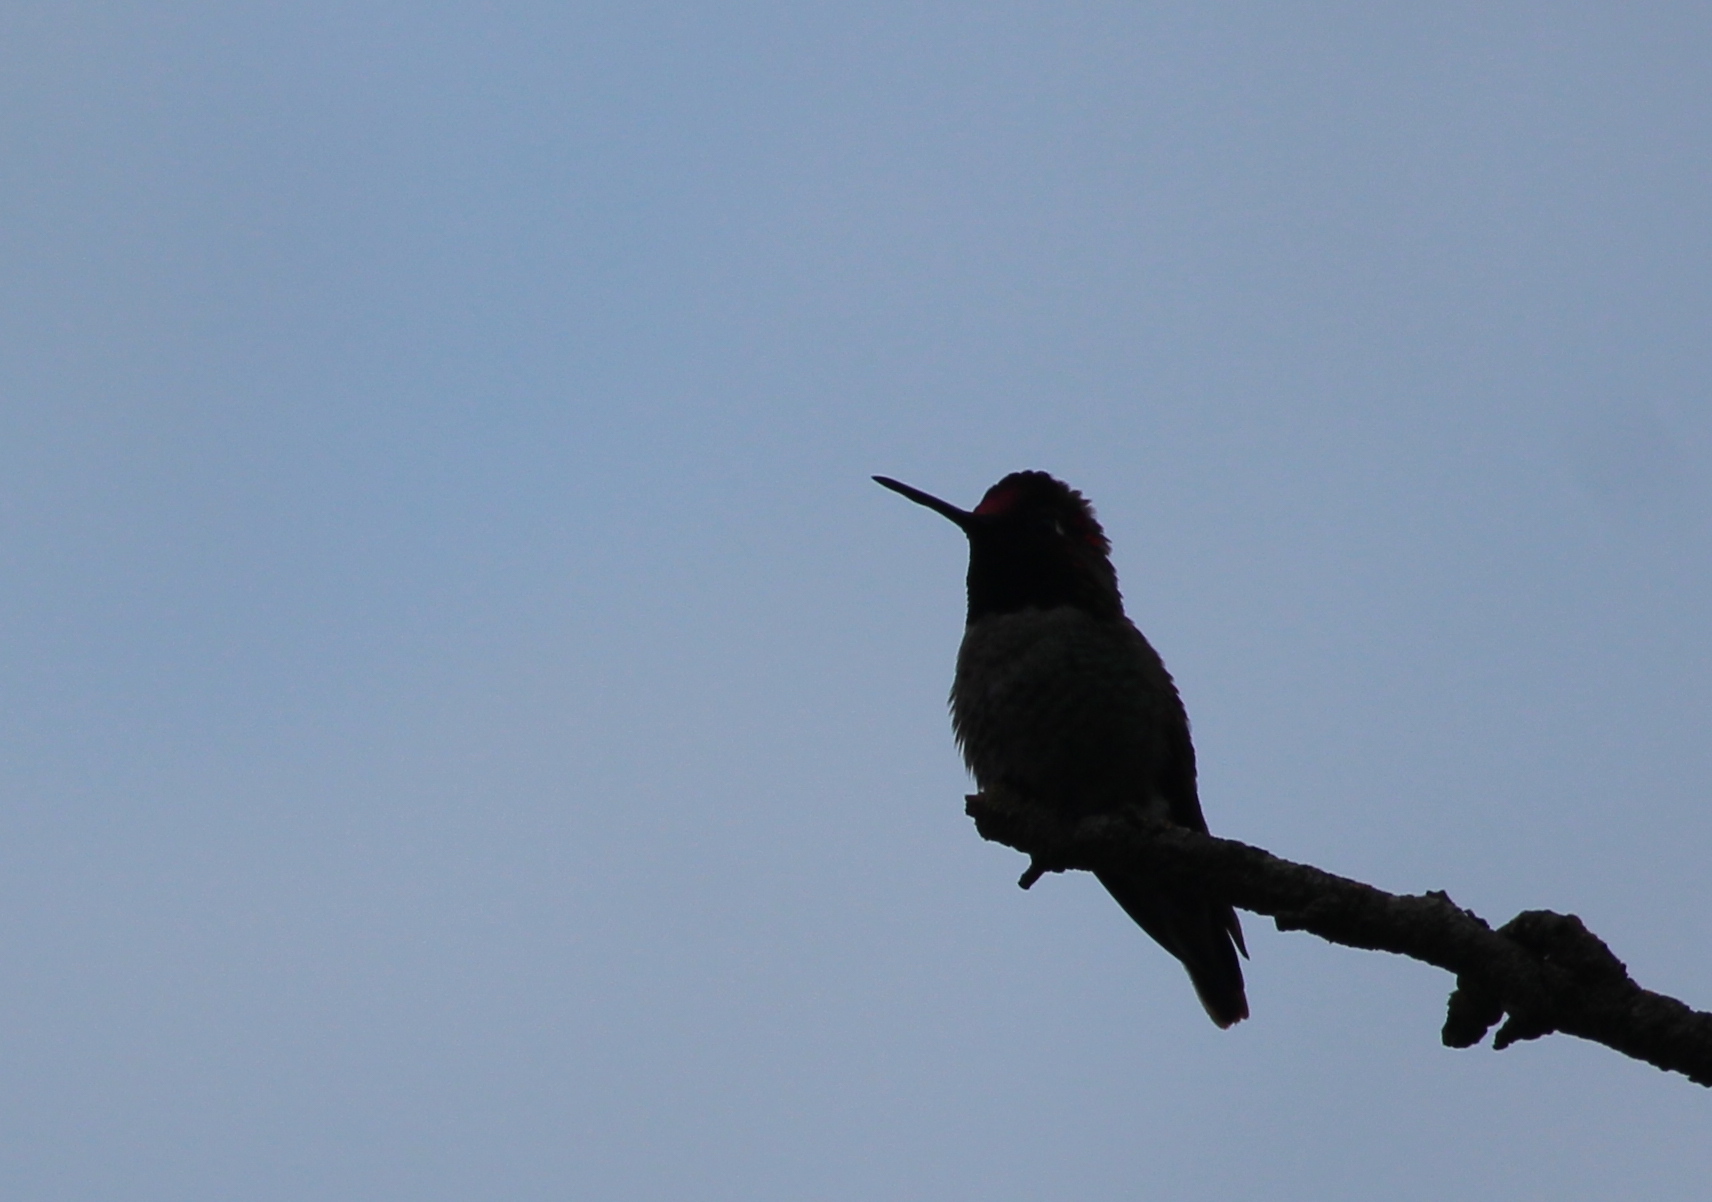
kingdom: Animalia
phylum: Chordata
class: Aves
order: Apodiformes
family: Trochilidae
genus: Calypte
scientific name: Calypte anna
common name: Anna's hummingbird
